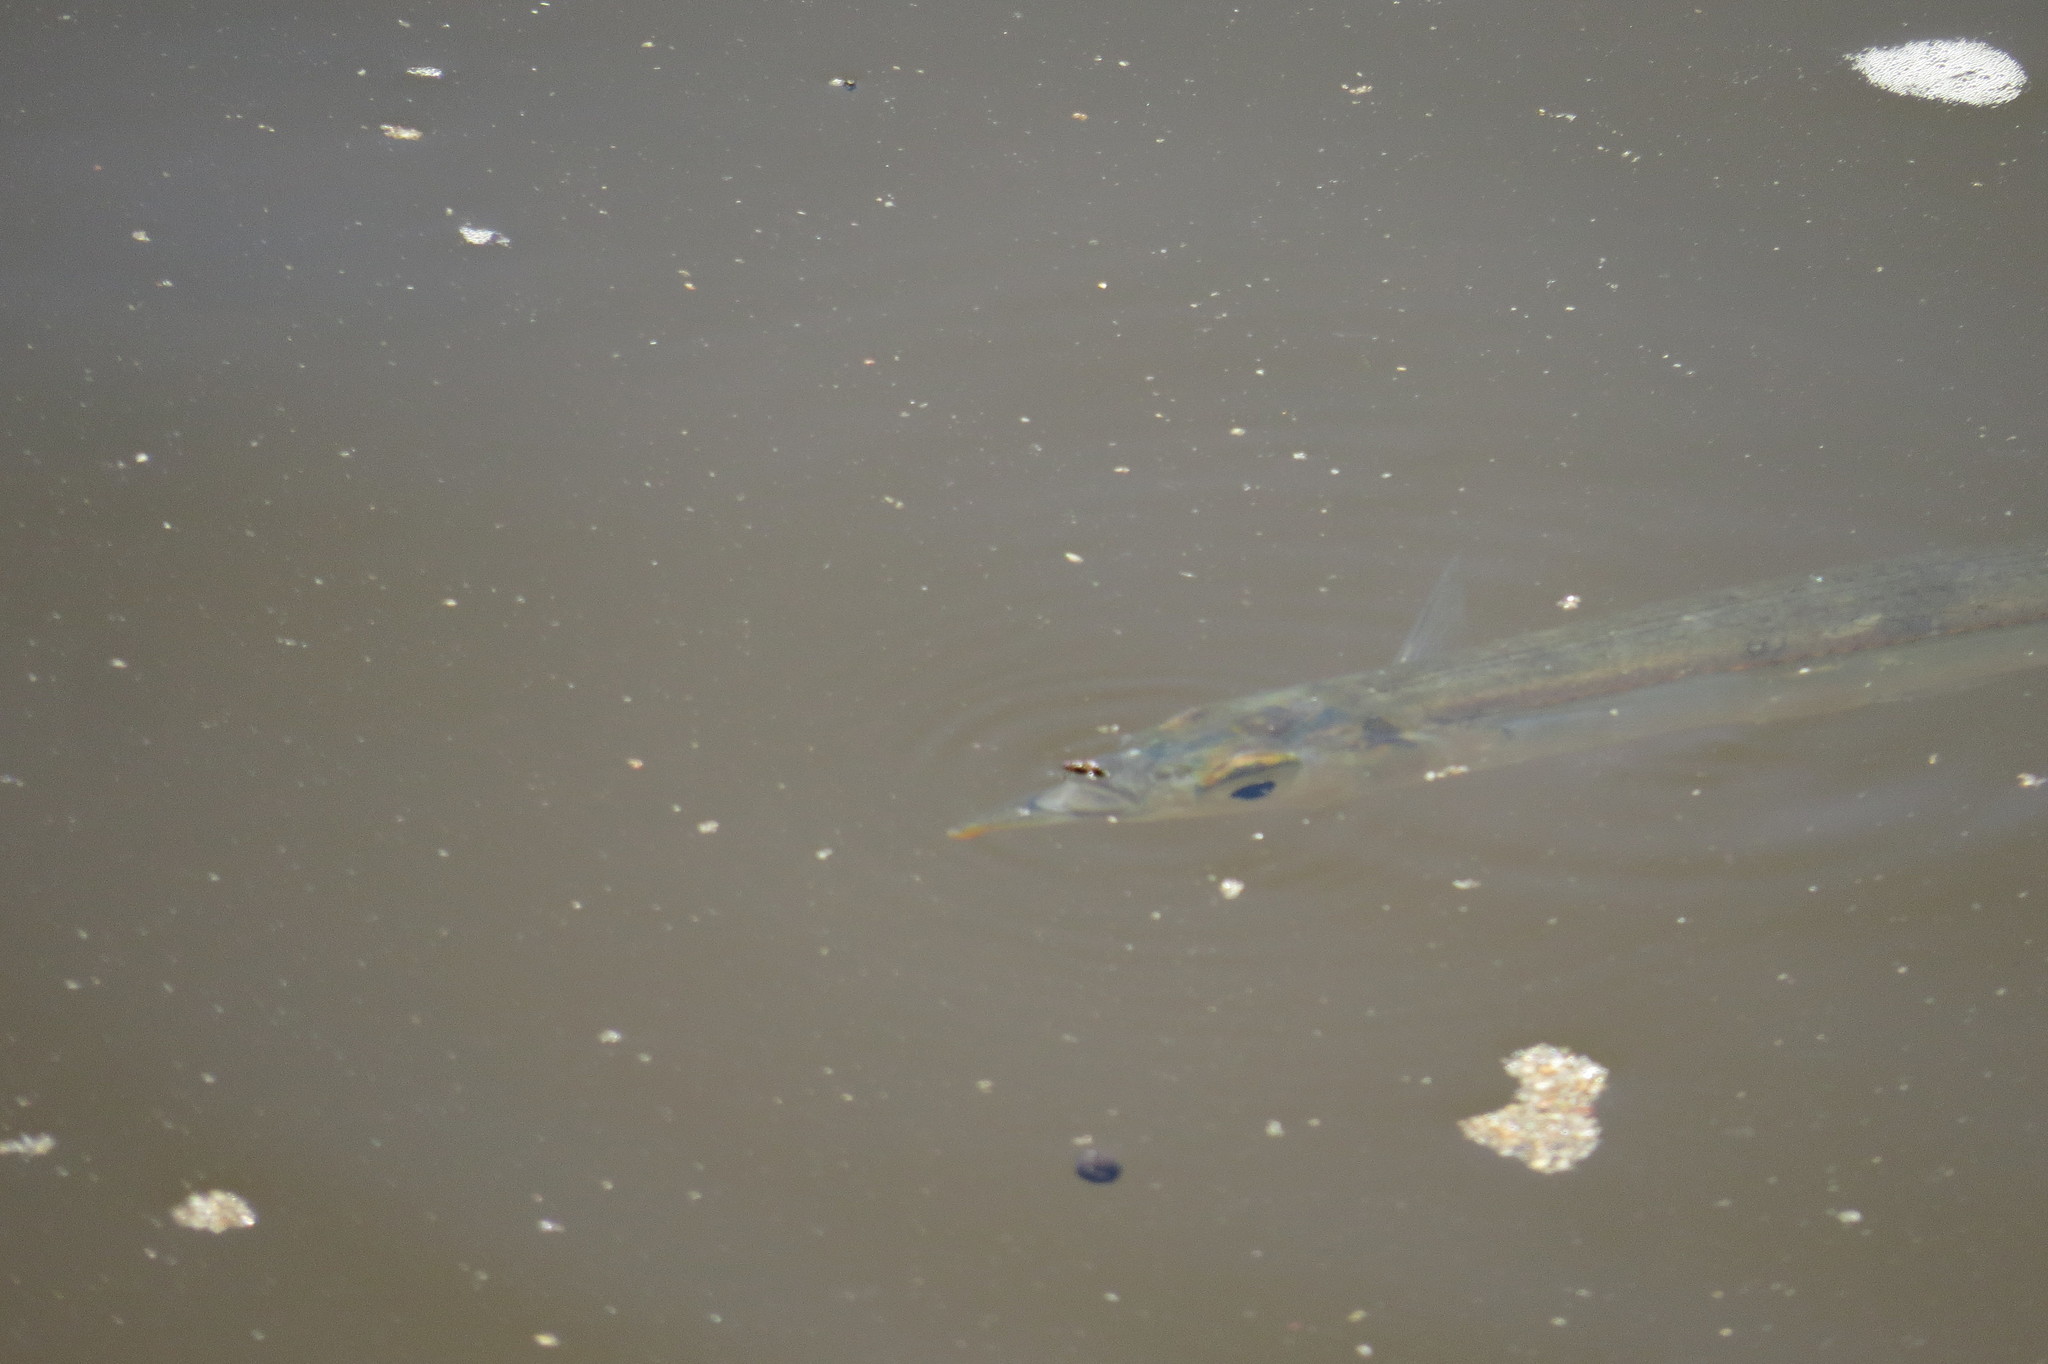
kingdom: Animalia
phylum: Chordata
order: Beloniformes
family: Hemiramphidae
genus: Arrhamphus
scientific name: Arrhamphus sclerolepis
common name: Snub-nosed garfish
